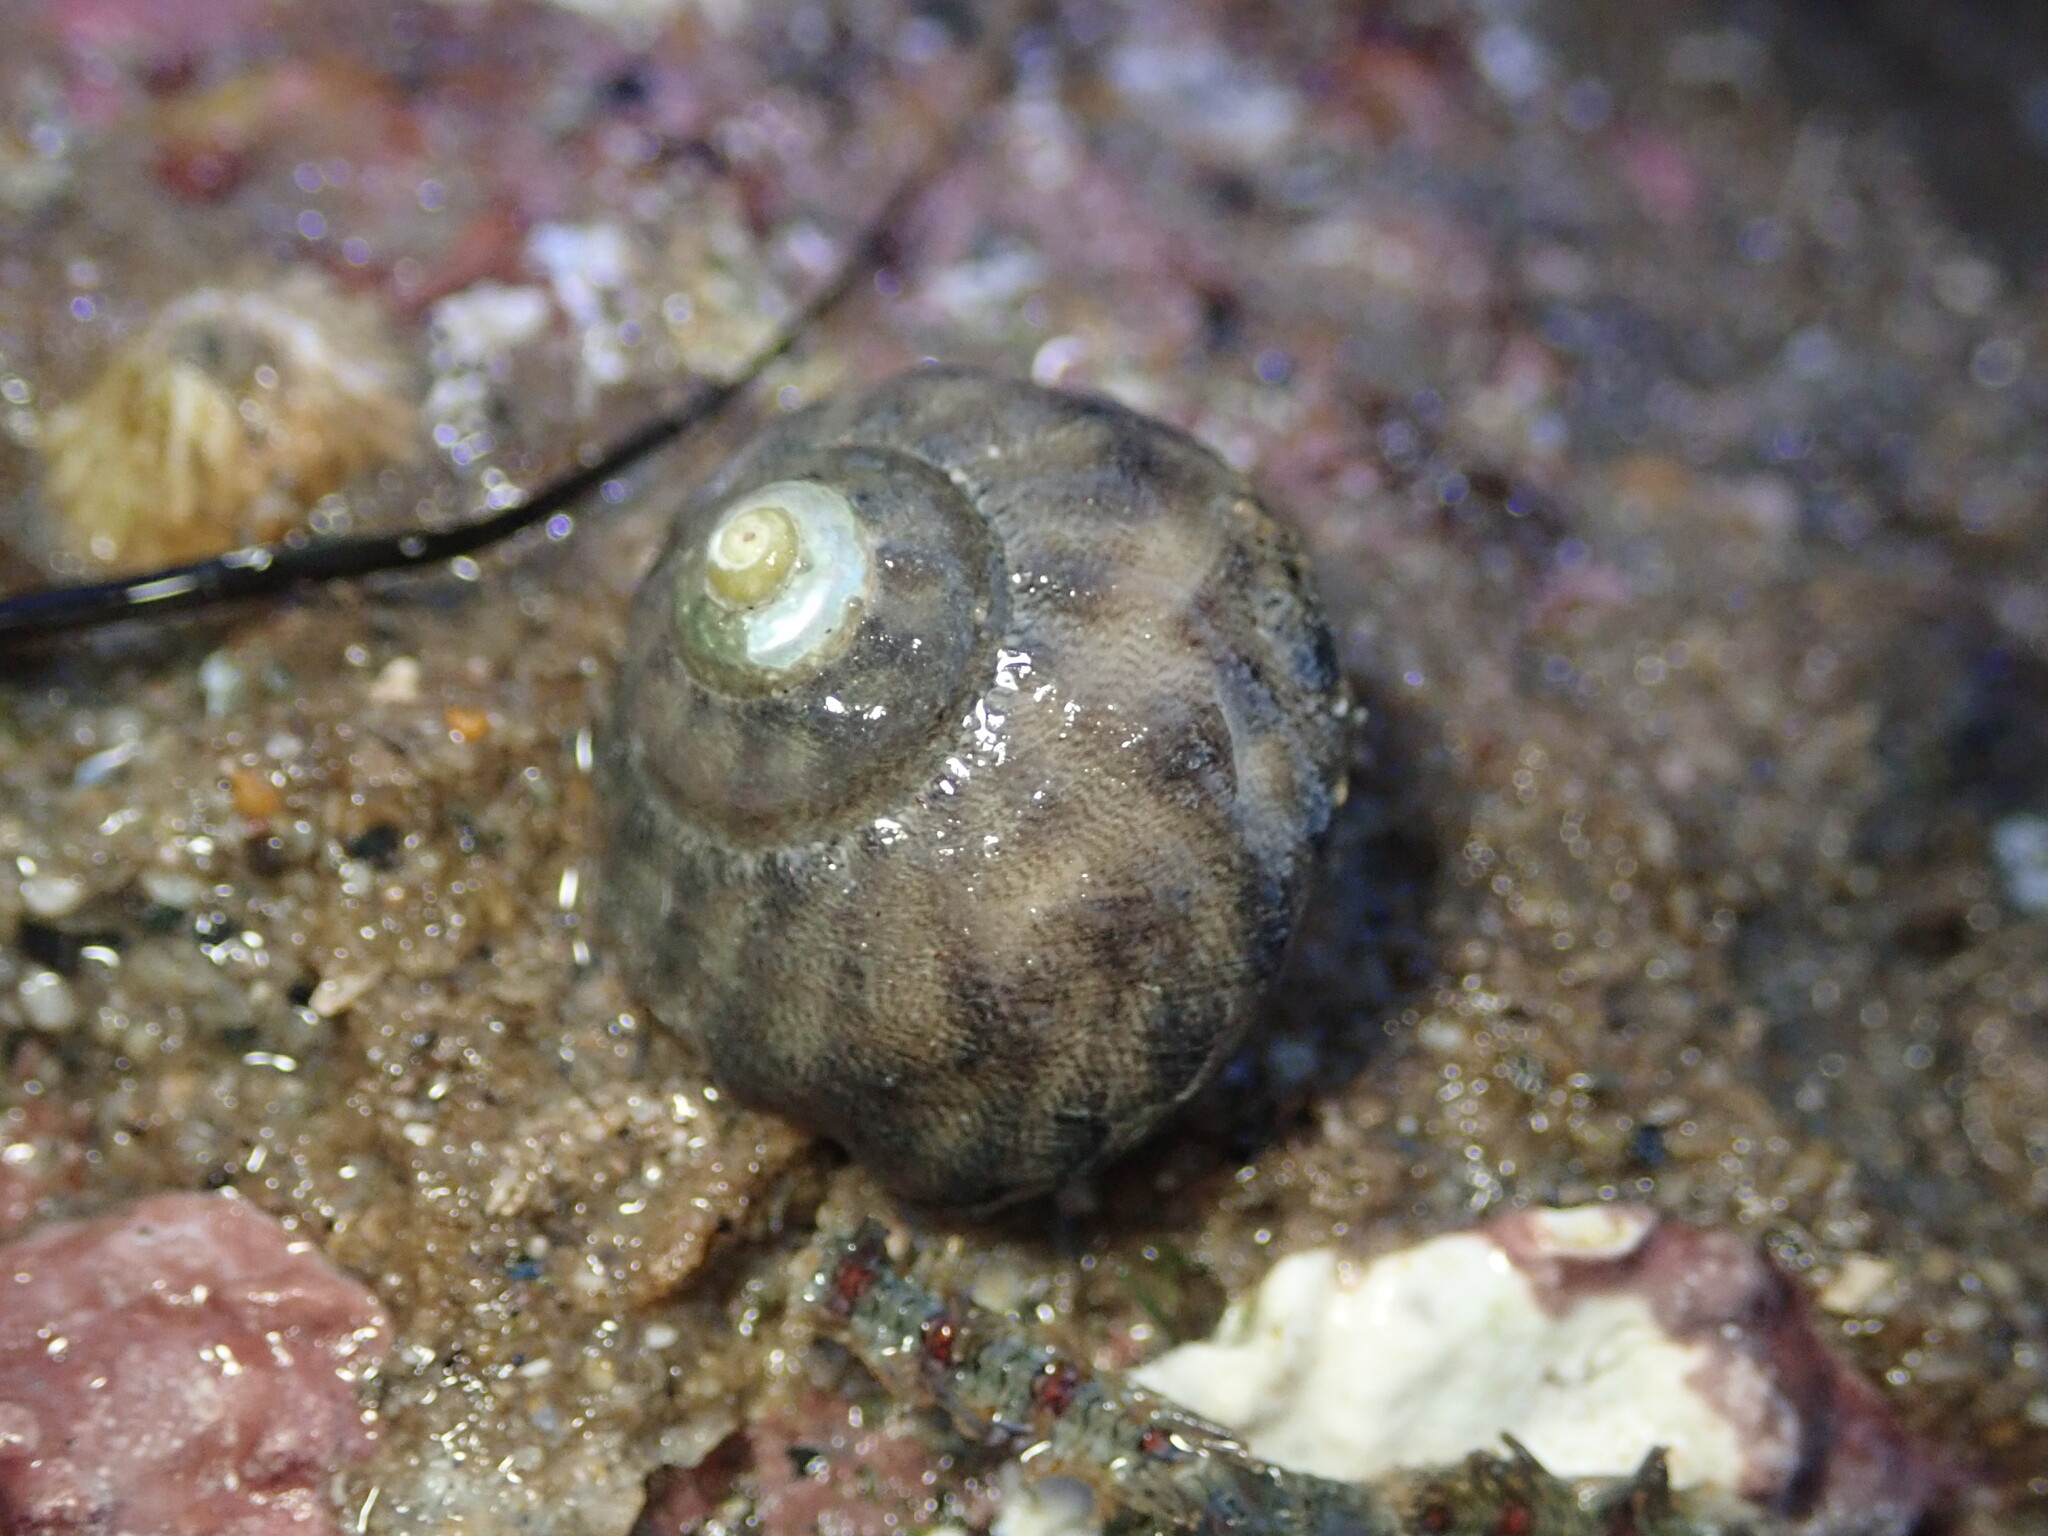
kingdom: Animalia
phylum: Mollusca
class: Gastropoda
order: Trochida
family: Tegulidae
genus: Tegula
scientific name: Tegula aureotincta
